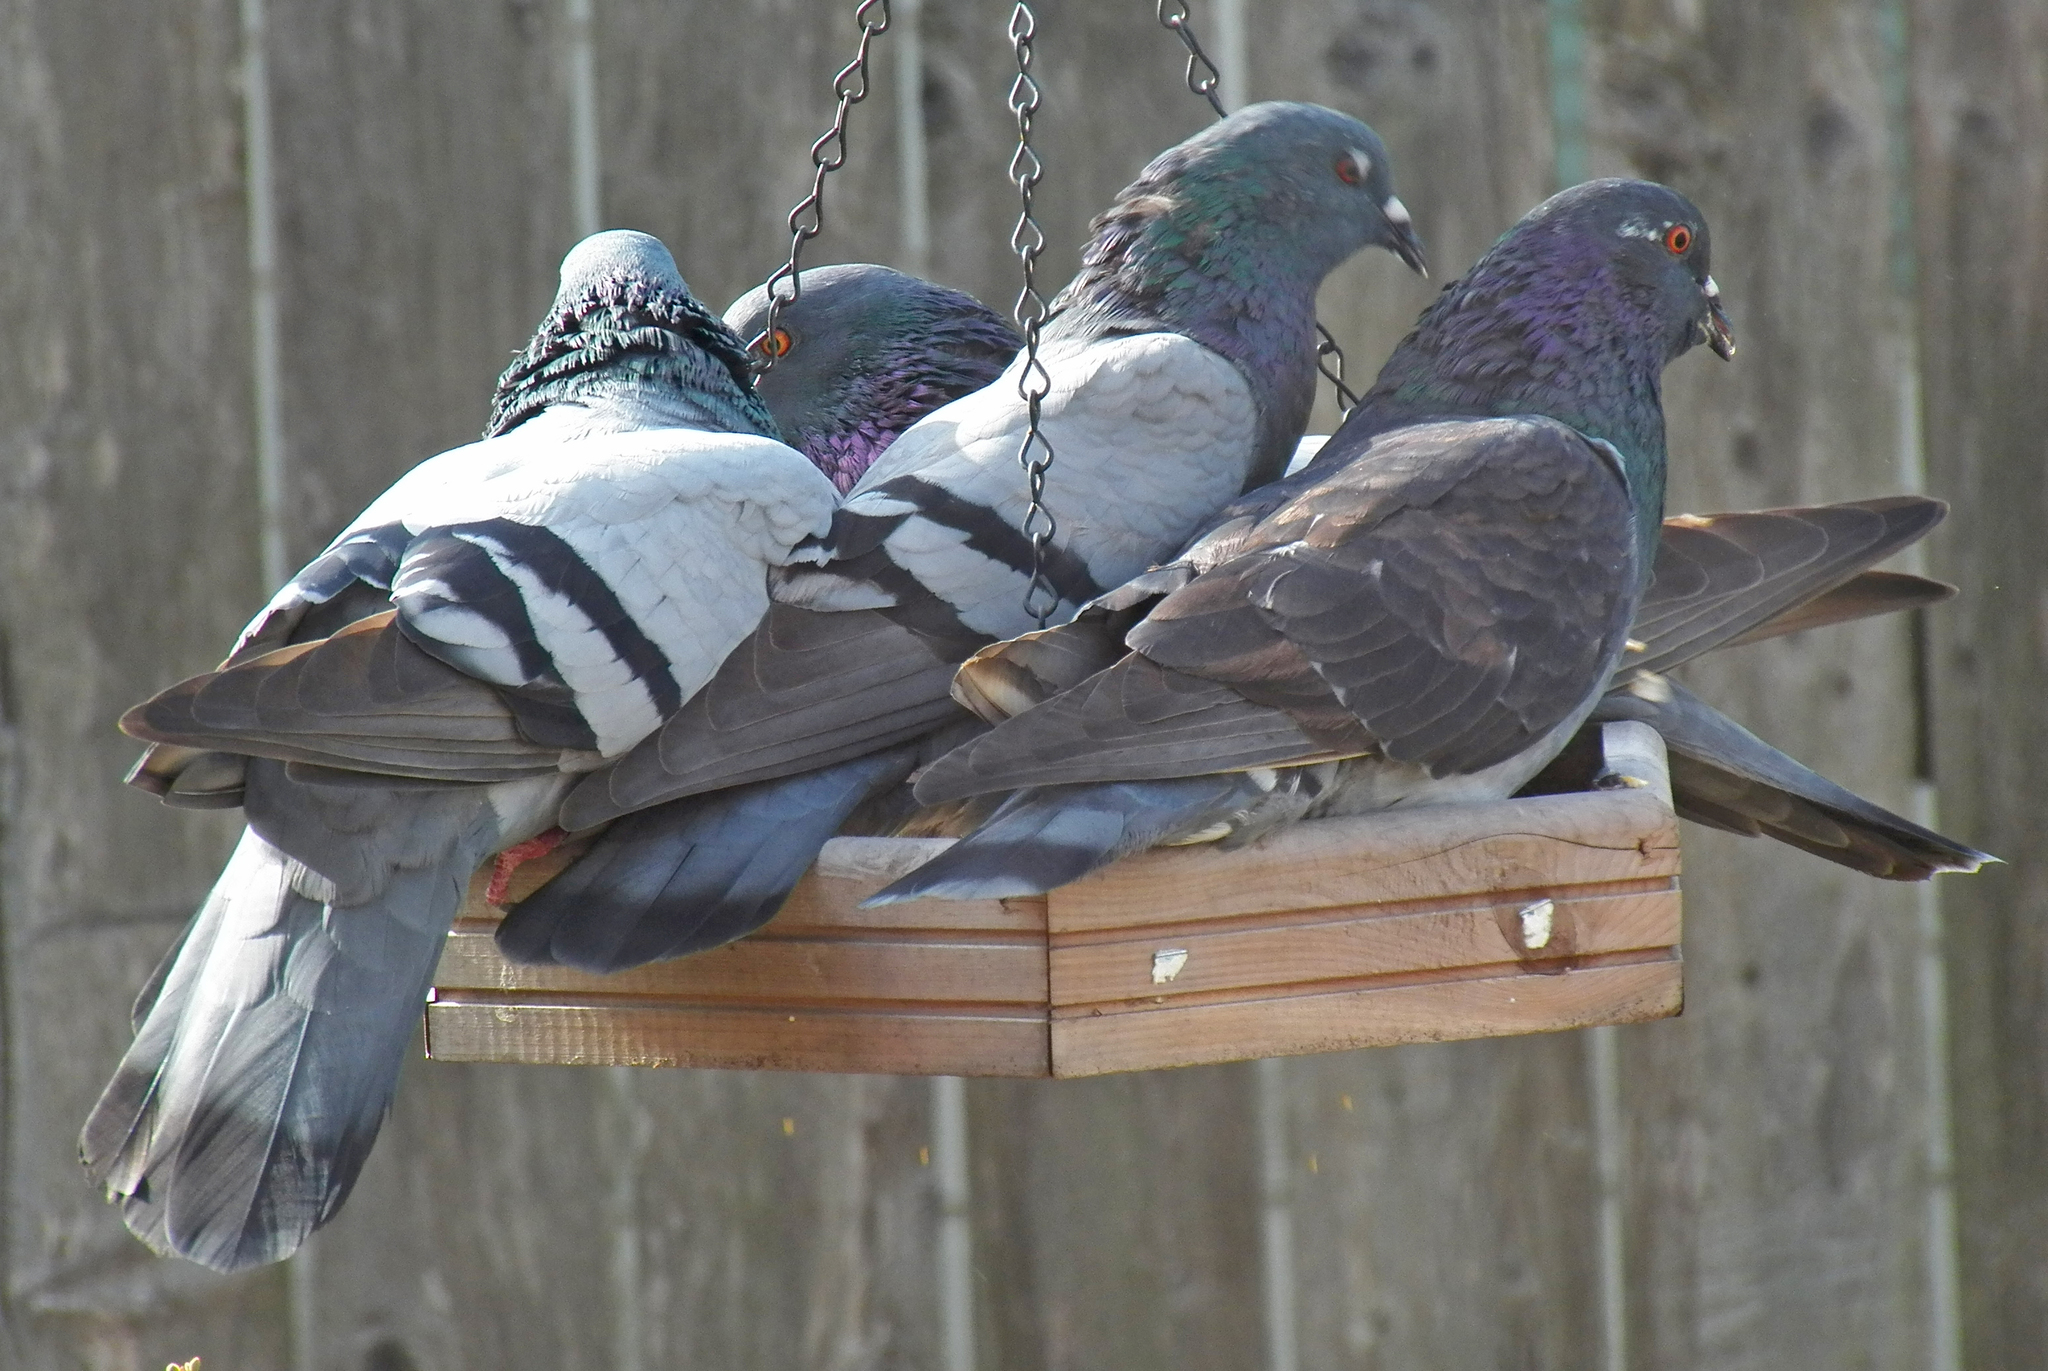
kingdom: Animalia
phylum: Chordata
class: Aves
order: Columbiformes
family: Columbidae
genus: Columba
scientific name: Columba livia
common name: Rock pigeon
